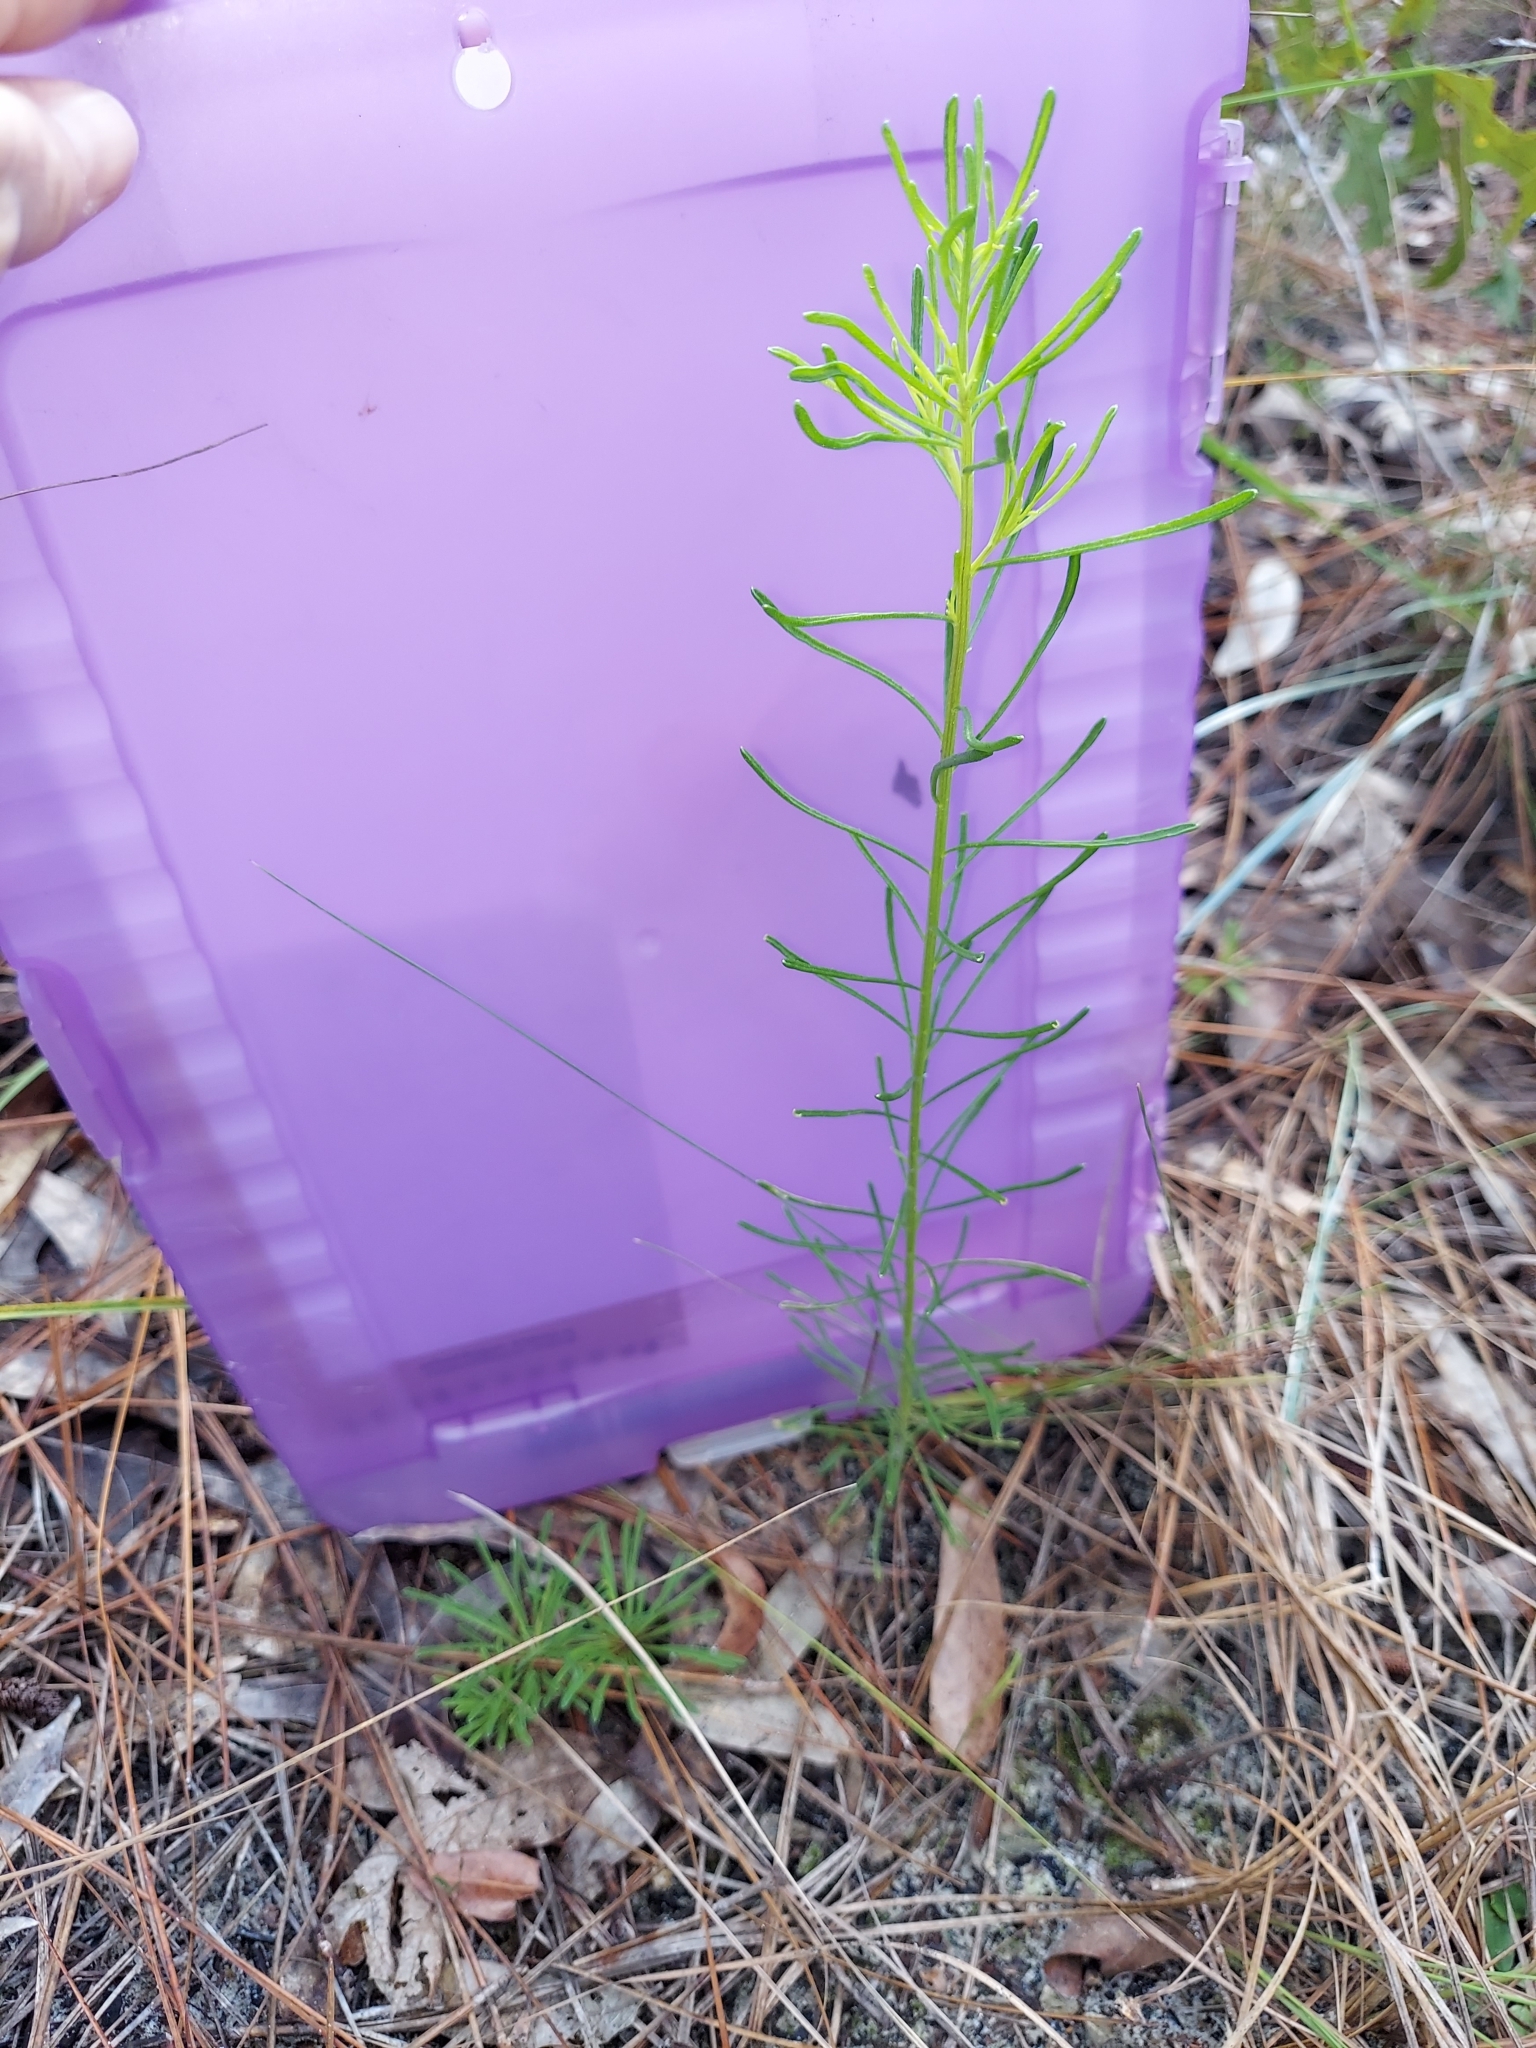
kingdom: Plantae
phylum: Tracheophyta
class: Magnoliopsida
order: Asterales
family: Asteraceae
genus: Balduina
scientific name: Balduina angustifolia
